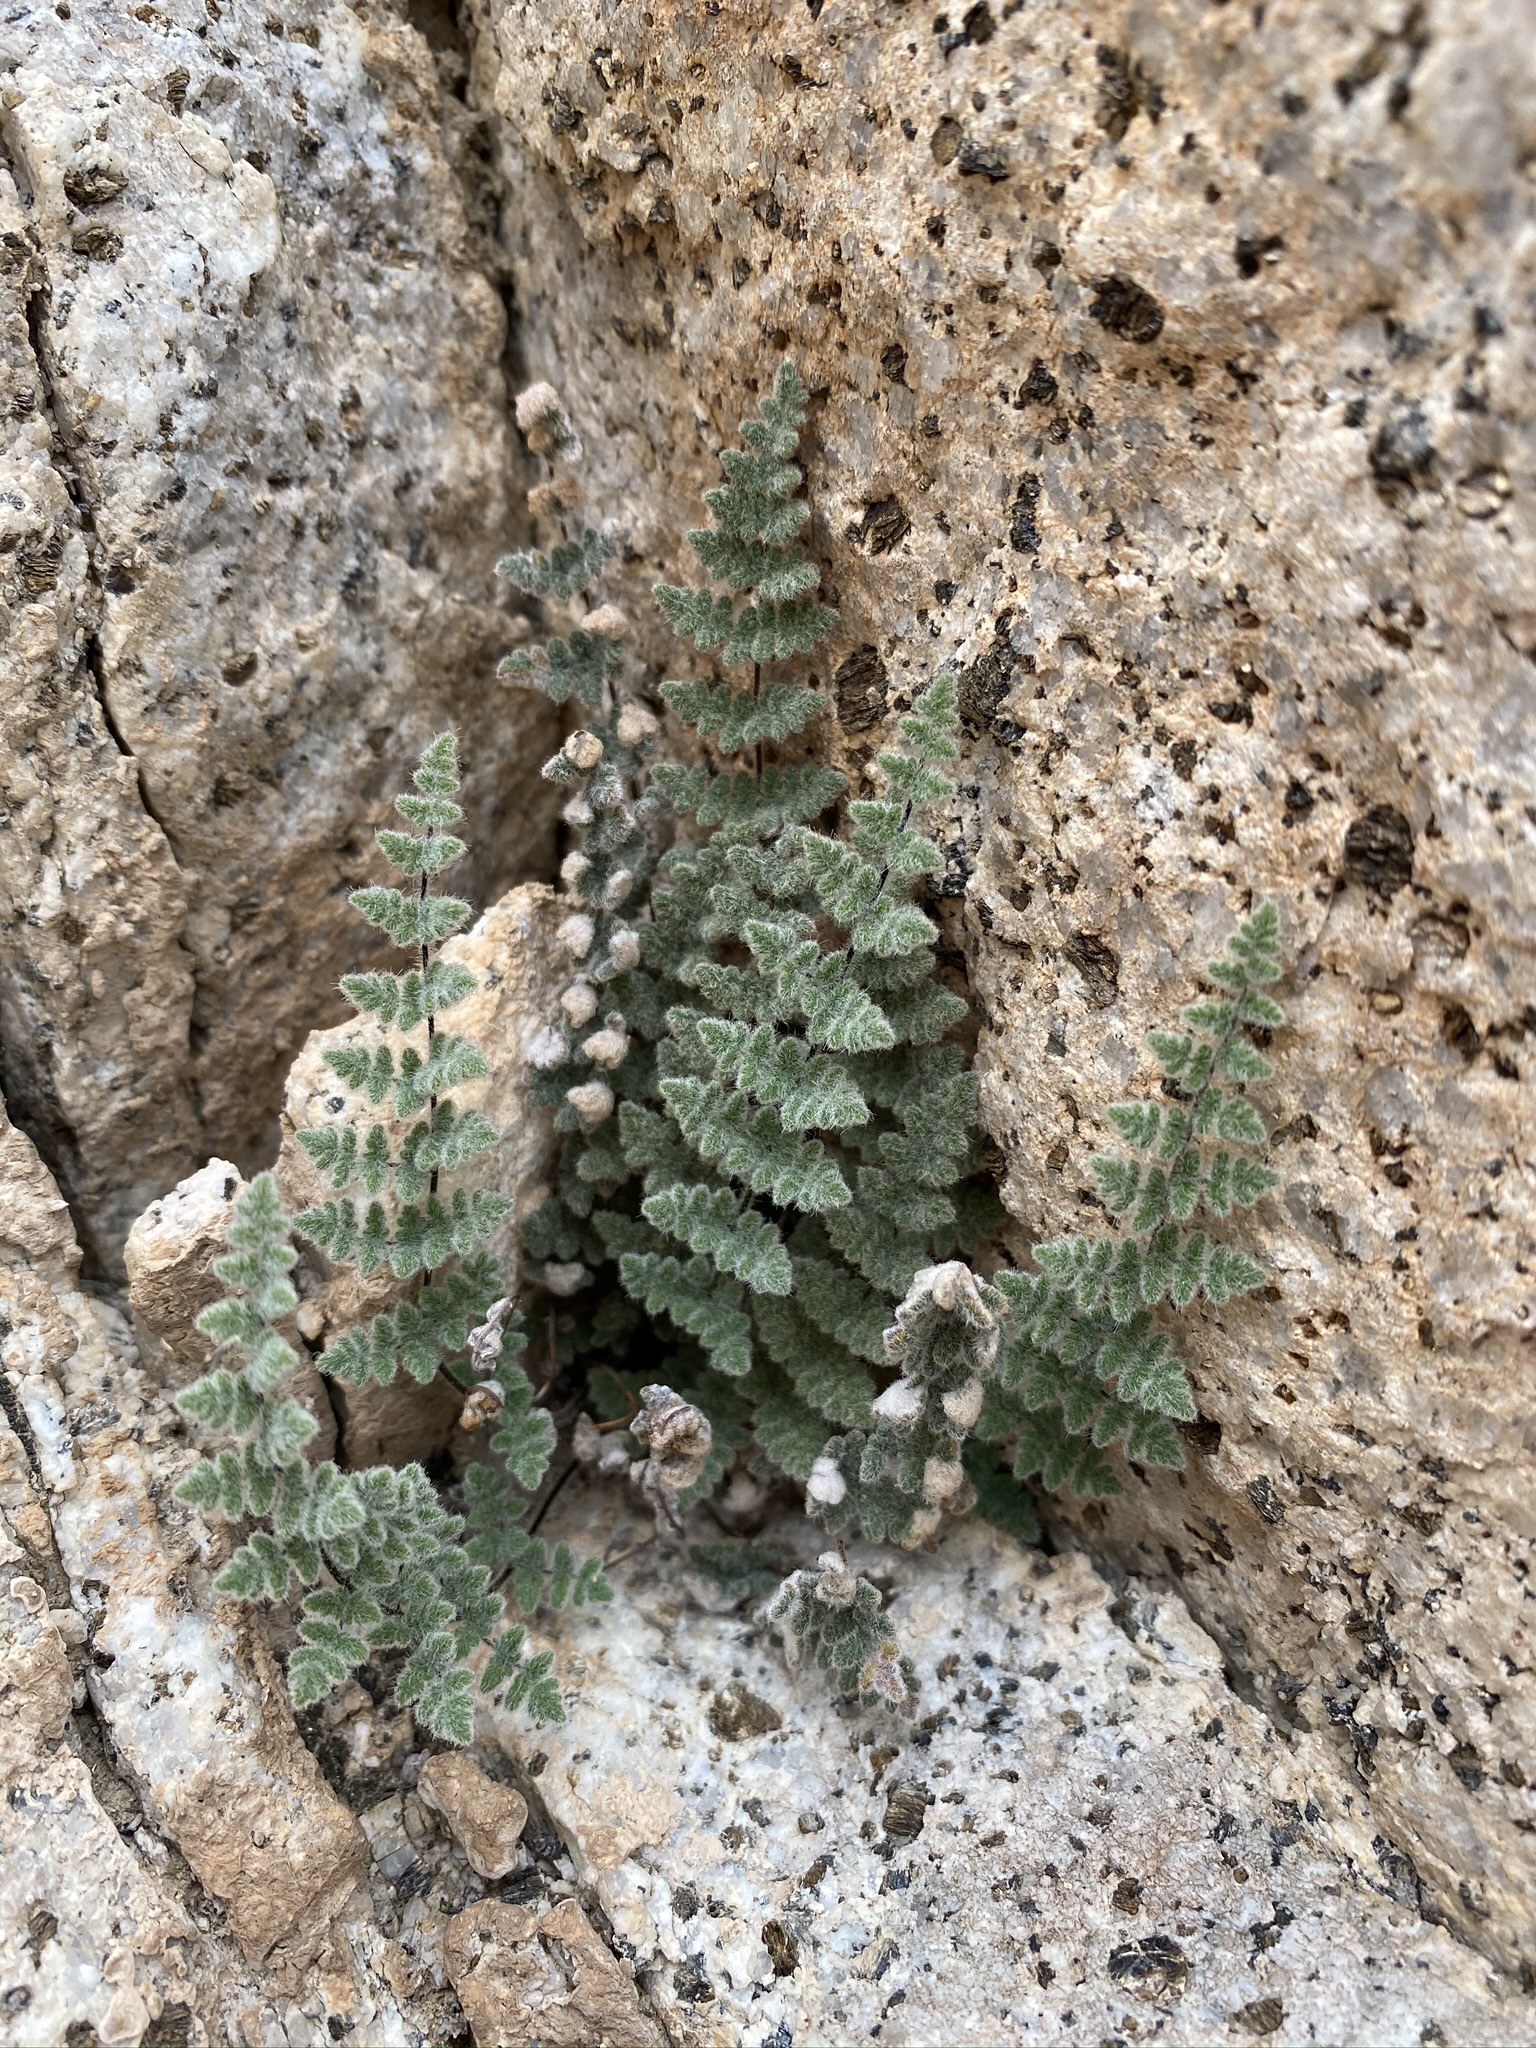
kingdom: Plantae
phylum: Tracheophyta
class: Polypodiopsida
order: Polypodiales
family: Pteridaceae
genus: Myriopteris
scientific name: Myriopteris parryi
